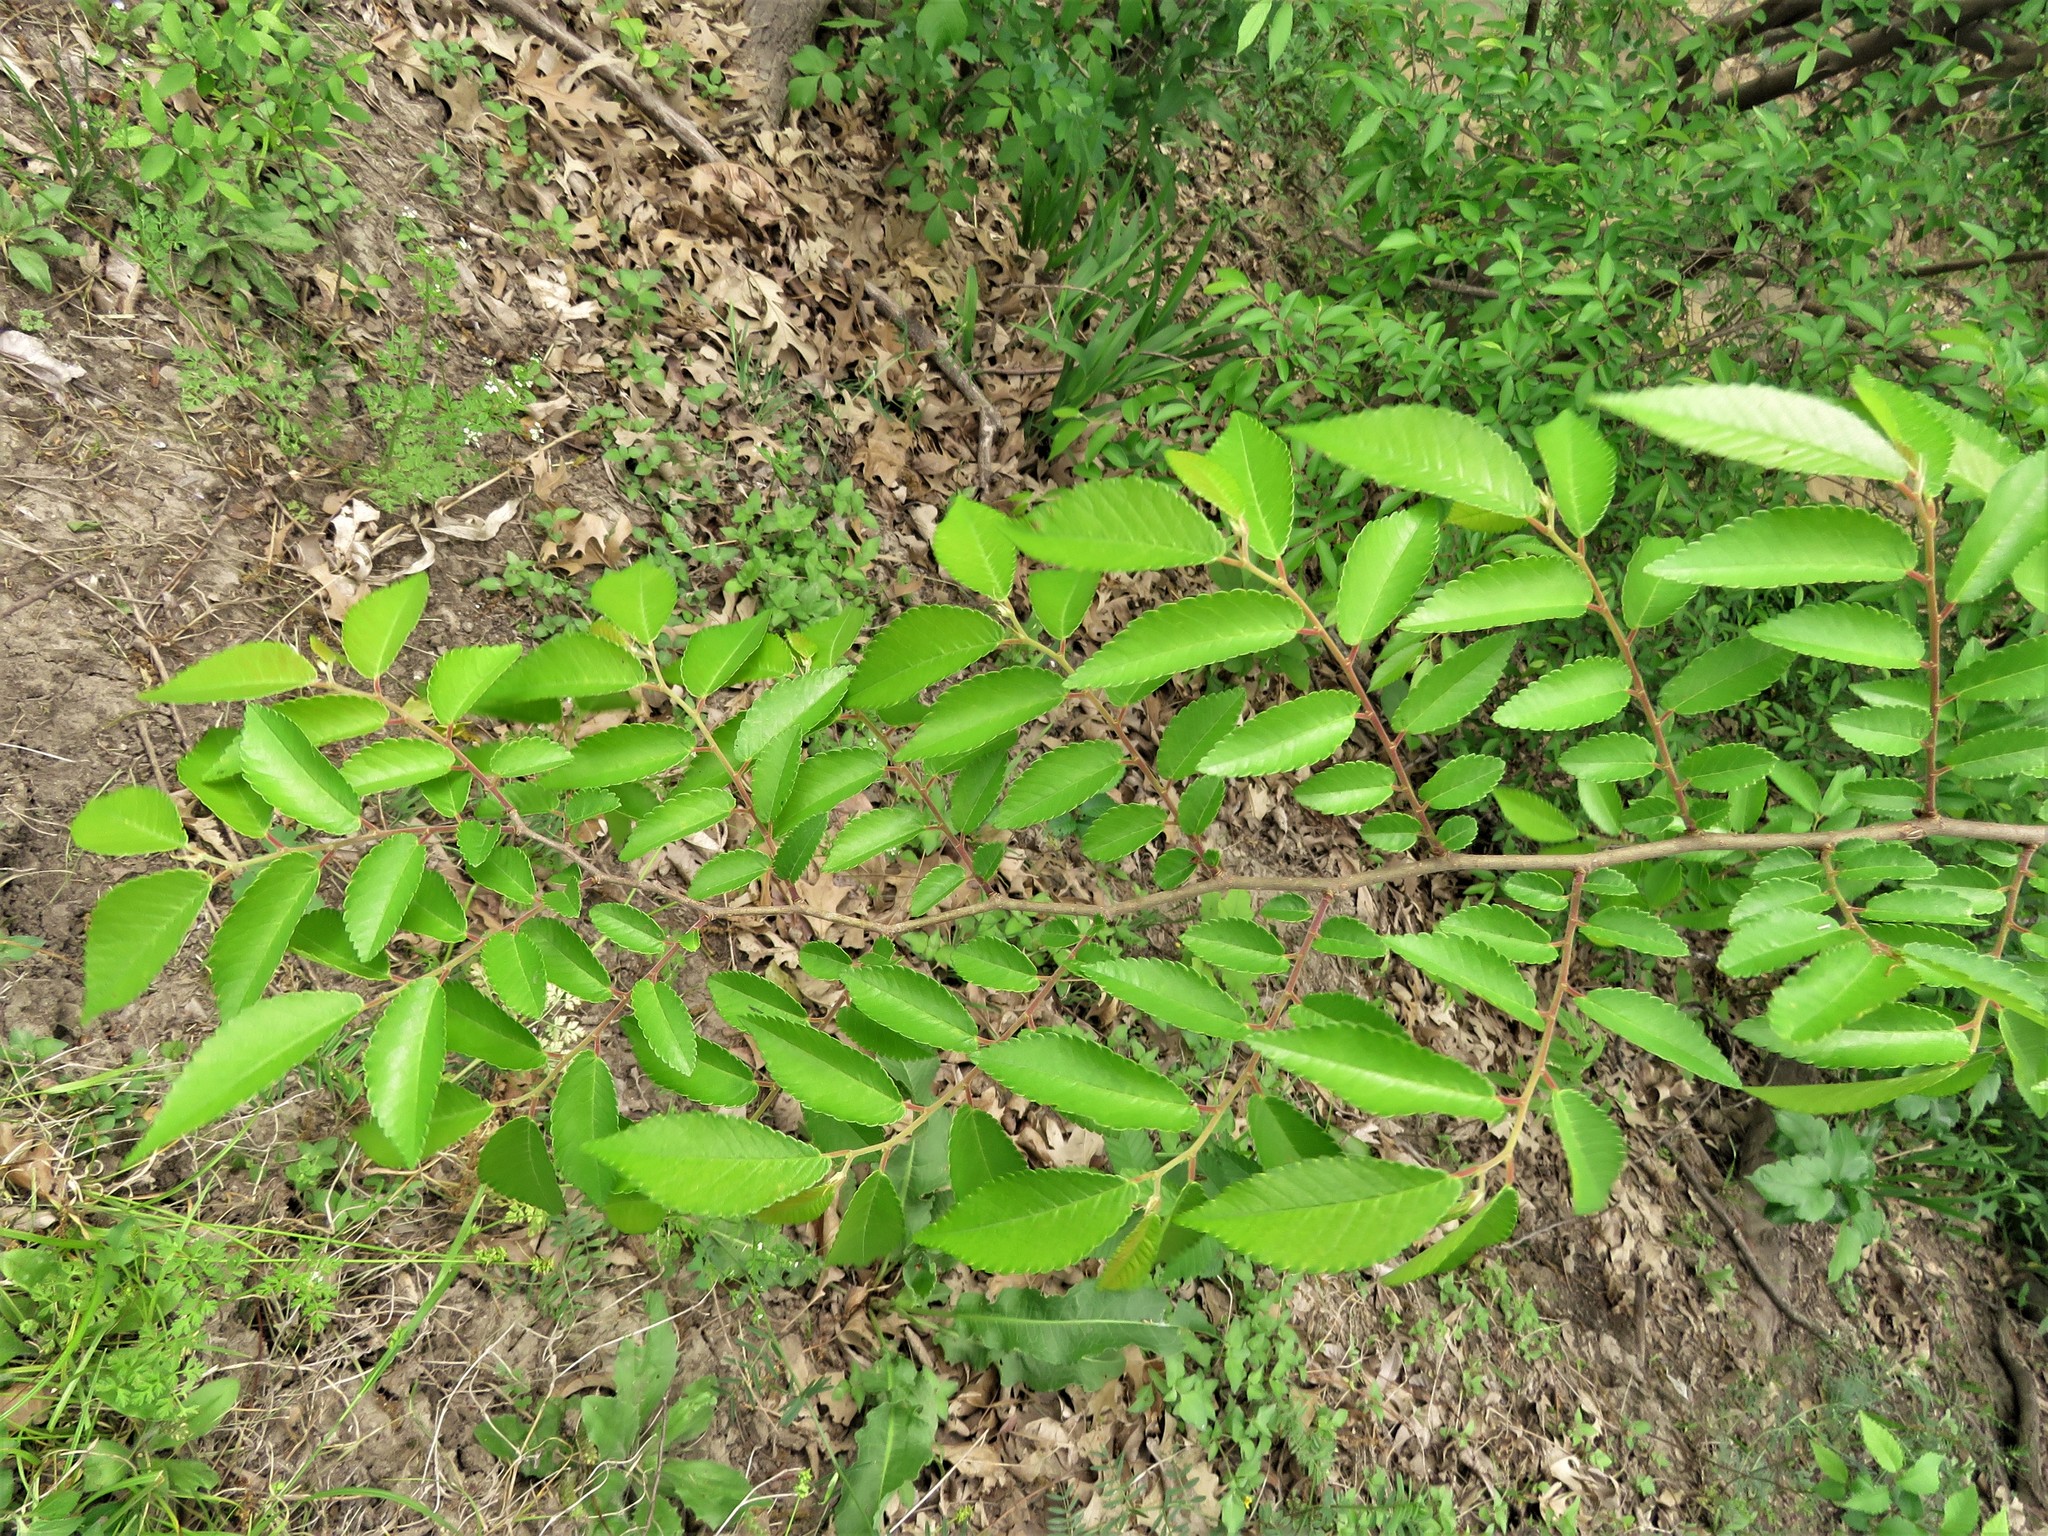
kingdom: Plantae
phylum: Tracheophyta
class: Magnoliopsida
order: Rosales
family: Ulmaceae
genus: Ulmus
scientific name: Ulmus parvifolia
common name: Chinese elm
